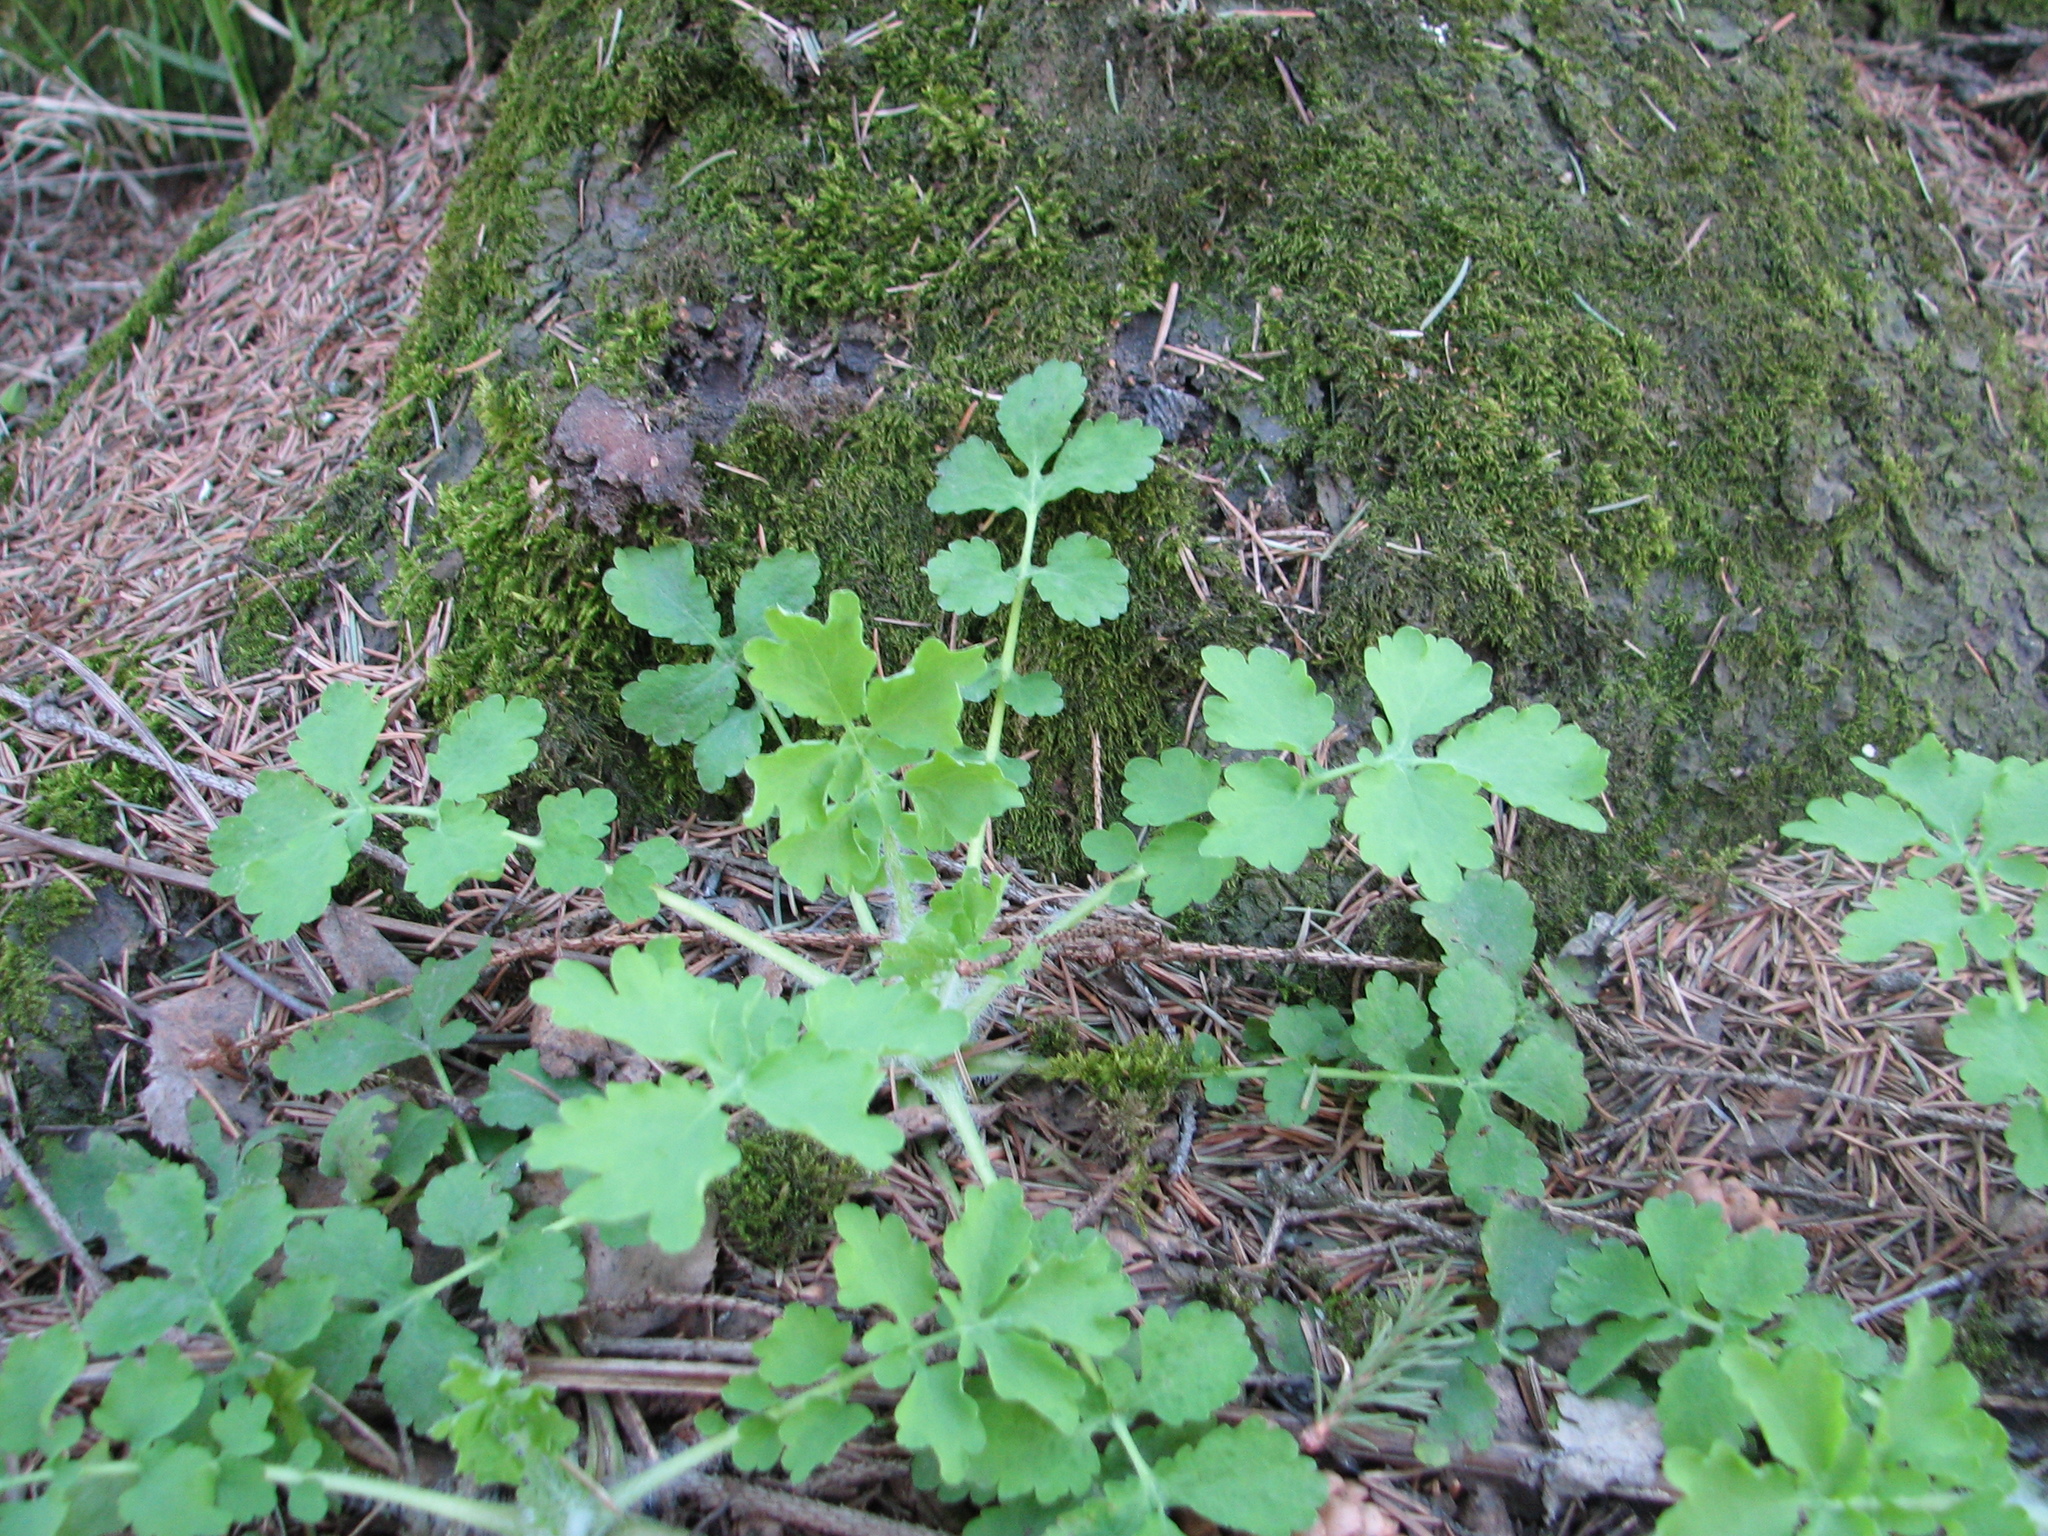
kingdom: Plantae
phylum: Tracheophyta
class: Magnoliopsida
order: Ranunculales
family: Papaveraceae
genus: Chelidonium
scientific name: Chelidonium majus
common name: Greater celandine
